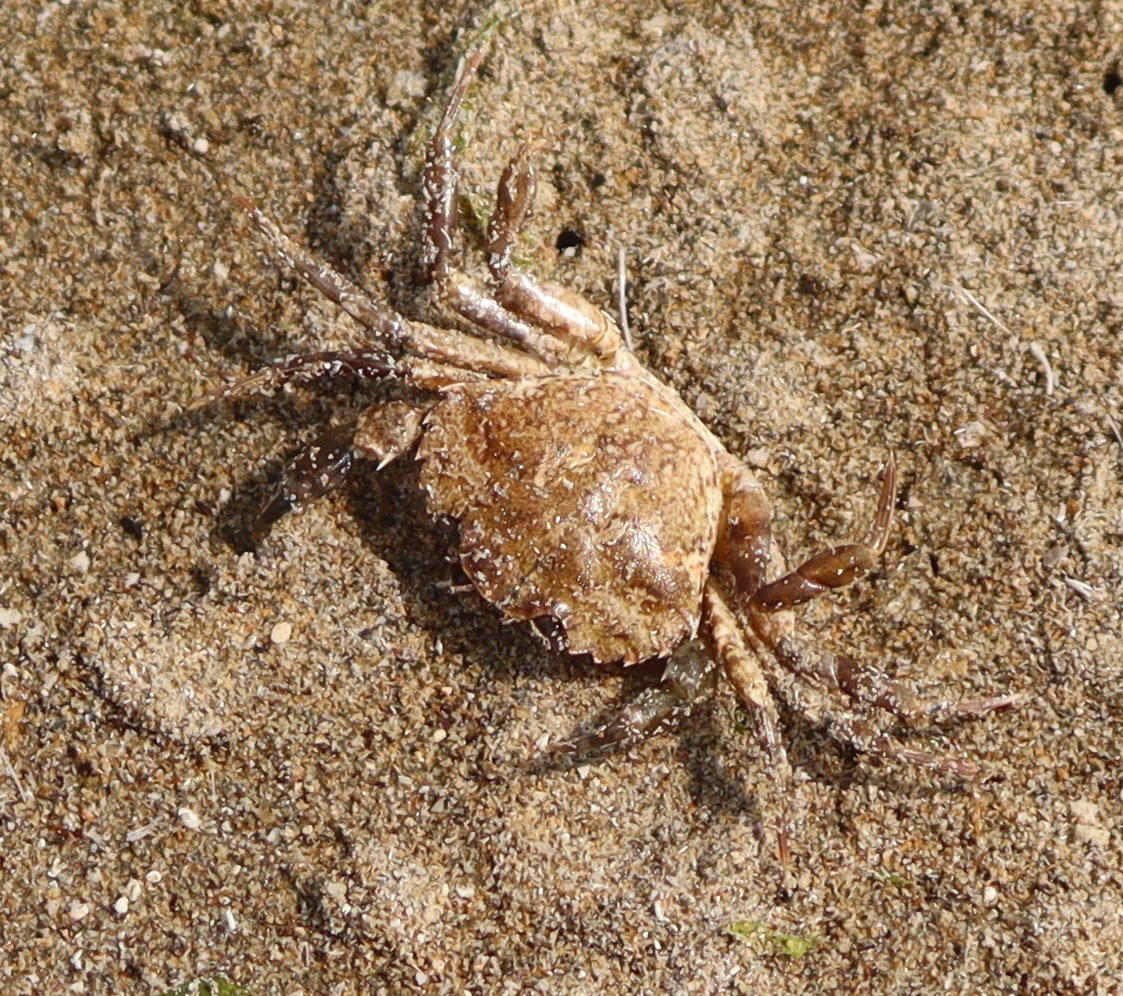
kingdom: Animalia
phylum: Arthropoda
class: Malacostraca
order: Decapoda
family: Carcinidae
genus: Carcinus
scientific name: Carcinus maenas
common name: European green crab
